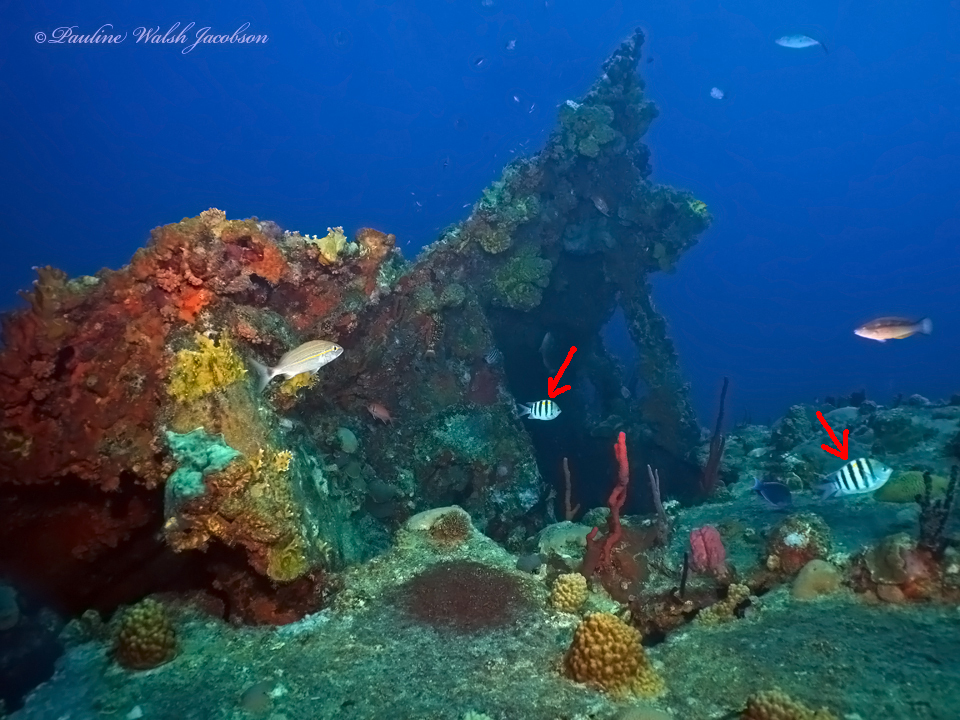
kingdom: Animalia
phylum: Chordata
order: Perciformes
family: Pomacentridae
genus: Abudefduf
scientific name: Abudefduf saxatilis
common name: Sergeant major
